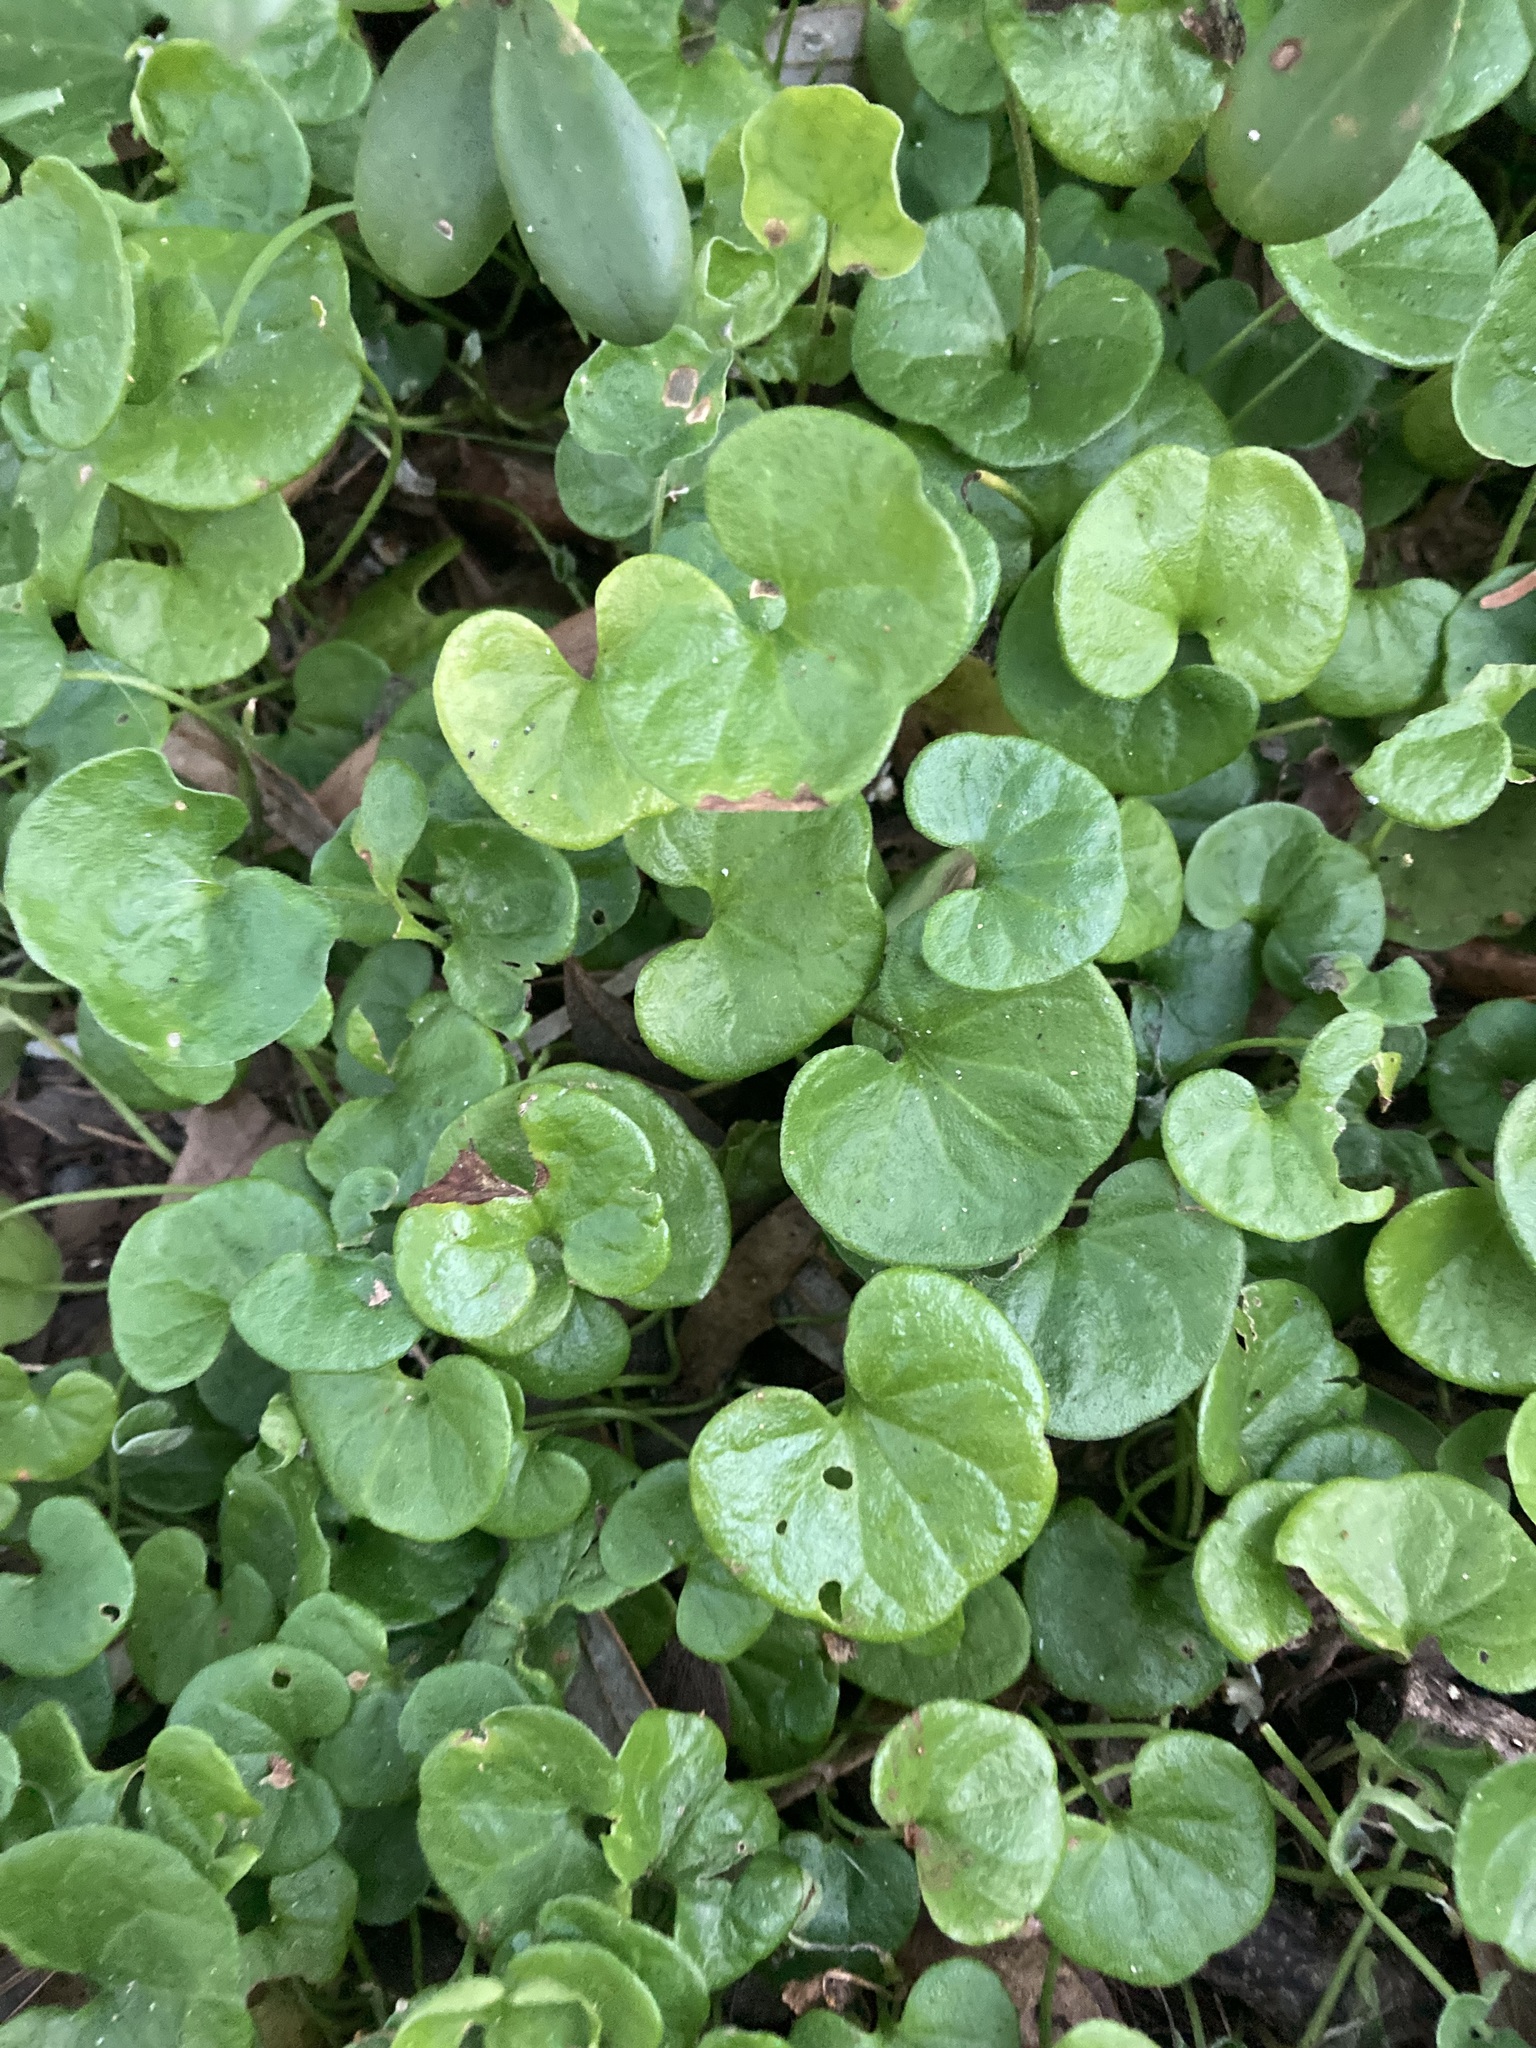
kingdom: Plantae
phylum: Tracheophyta
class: Magnoliopsida
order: Solanales
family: Convolvulaceae
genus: Dichondra
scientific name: Dichondra repens
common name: Kidneyweed
